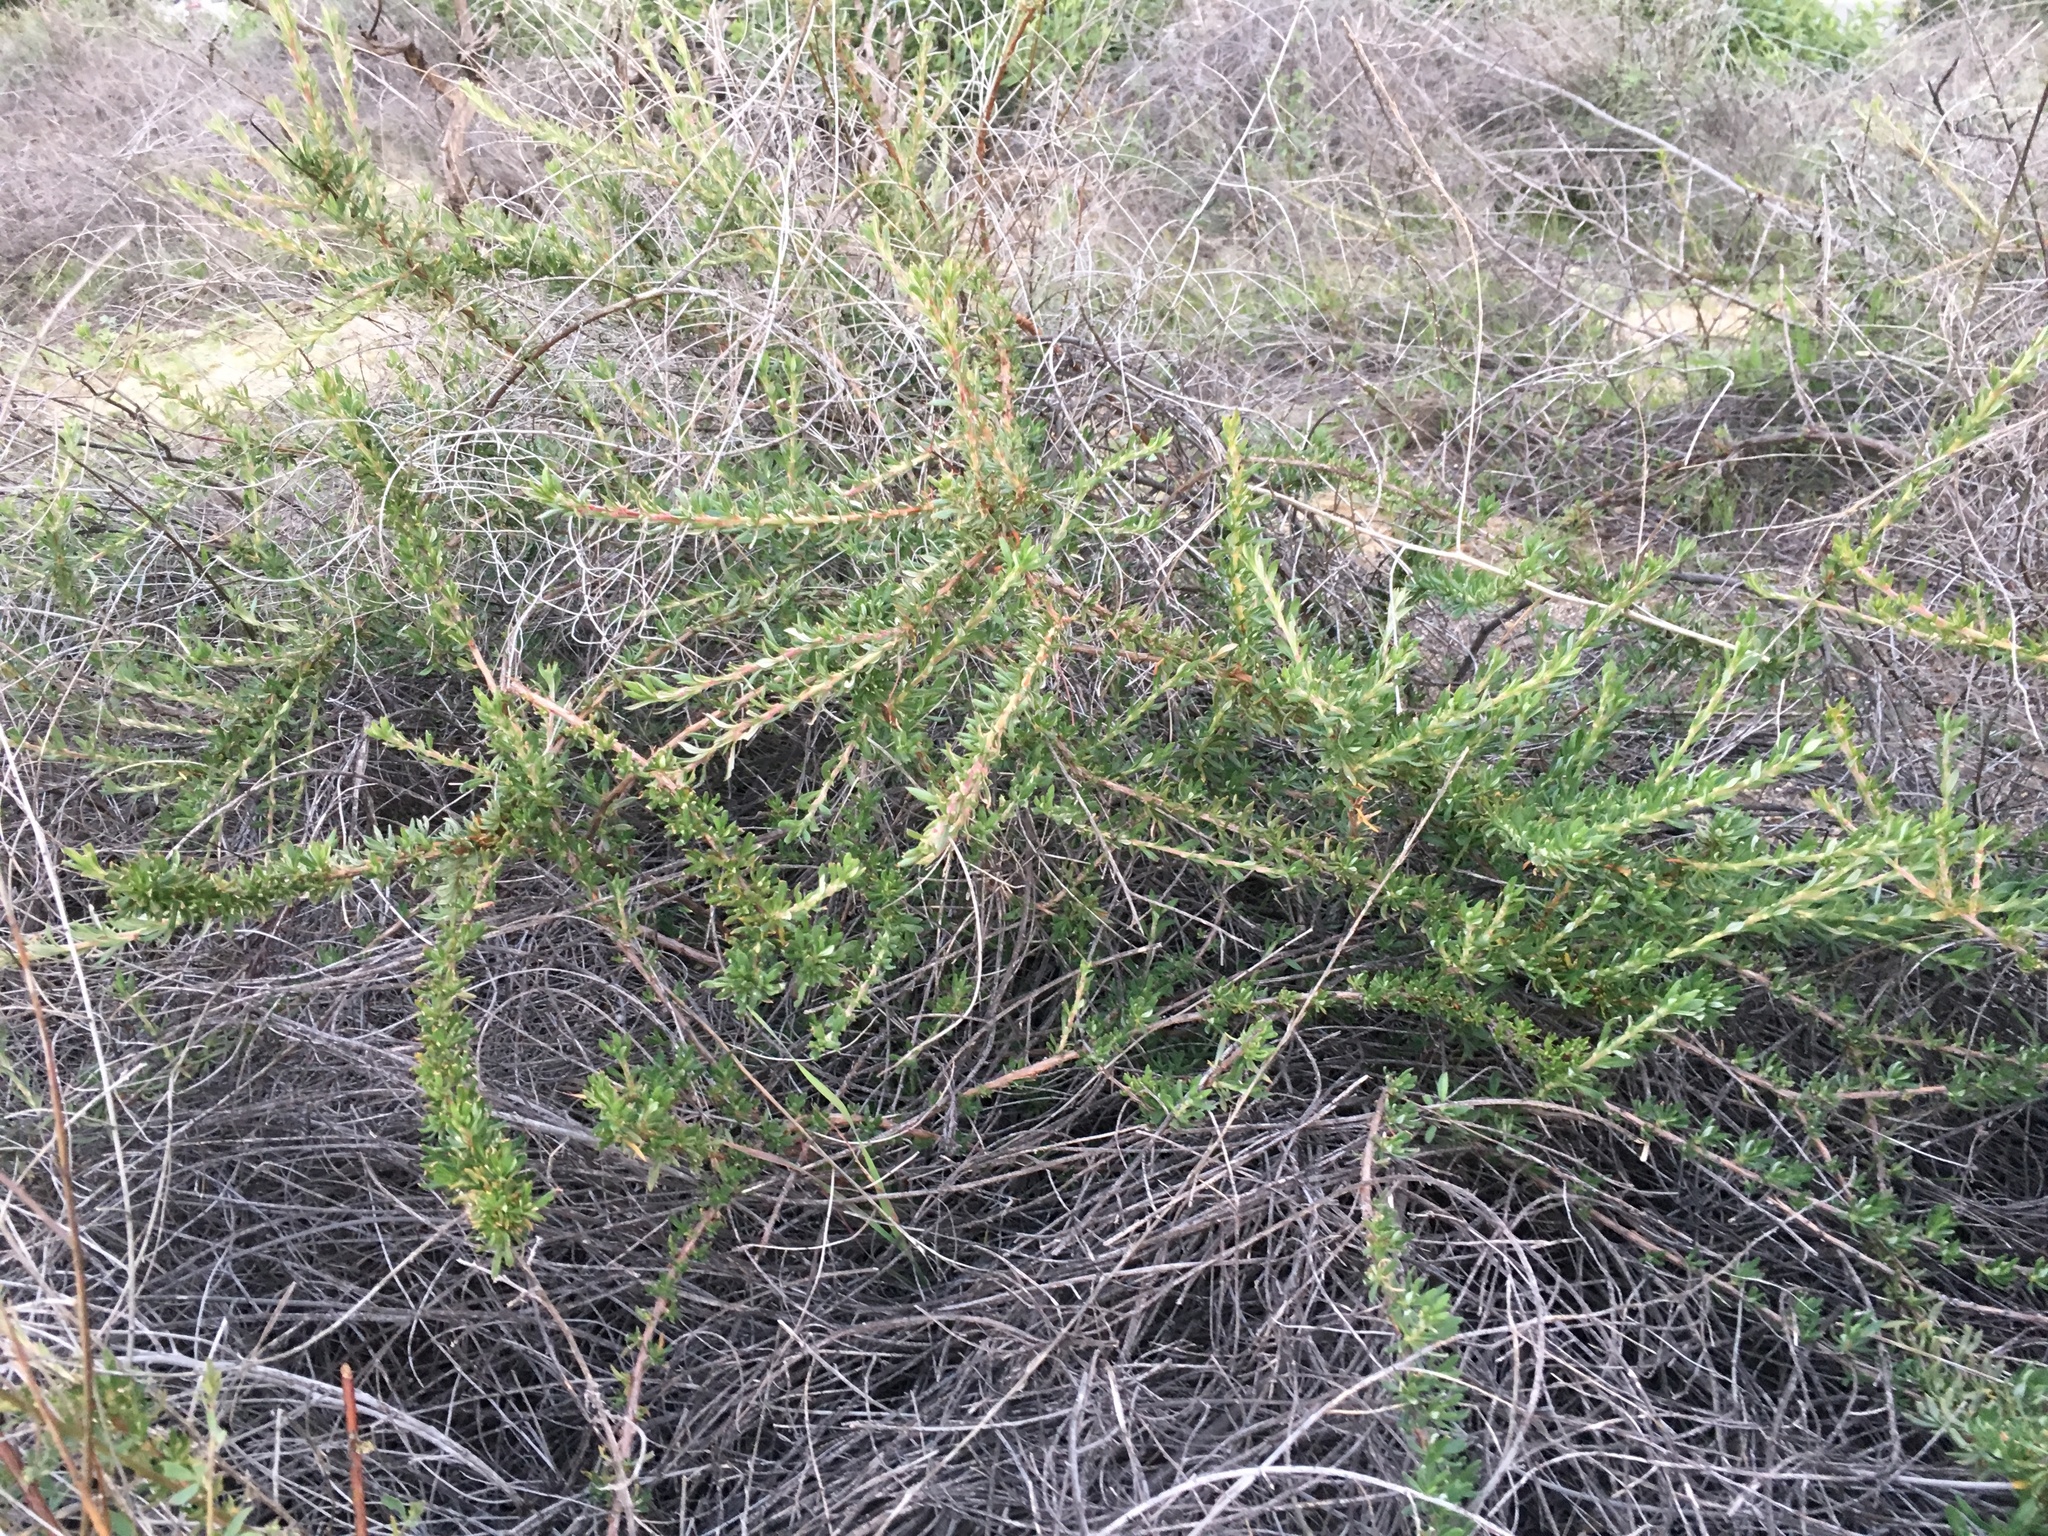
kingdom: Plantae
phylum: Tracheophyta
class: Magnoliopsida
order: Caryophyllales
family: Polygonaceae
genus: Eriogonum
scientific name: Eriogonum fasciculatum
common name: California wild buckwheat
